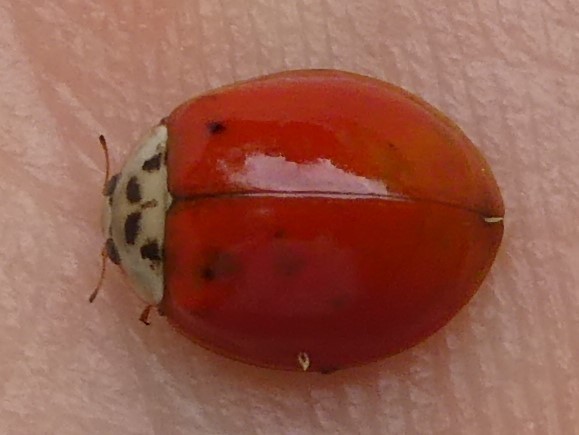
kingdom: Animalia
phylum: Arthropoda
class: Insecta
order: Coleoptera
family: Coccinellidae
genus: Harmonia
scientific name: Harmonia axyridis
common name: Harlequin ladybird
